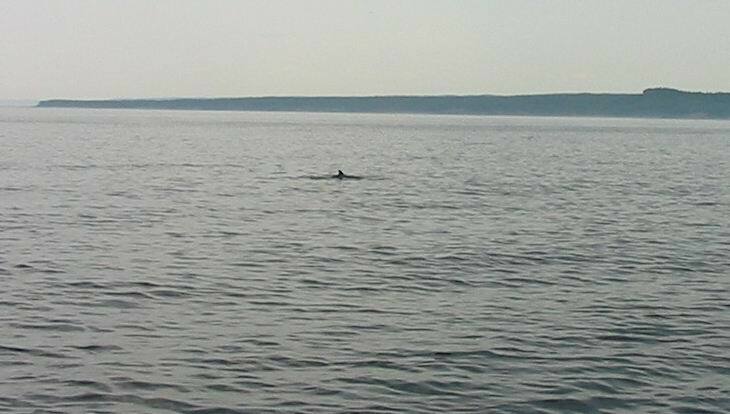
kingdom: Animalia
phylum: Chordata
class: Mammalia
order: Cetacea
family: Balaenopteridae
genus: Balaenoptera
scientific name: Balaenoptera acutorostrata
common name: Common minke whale
